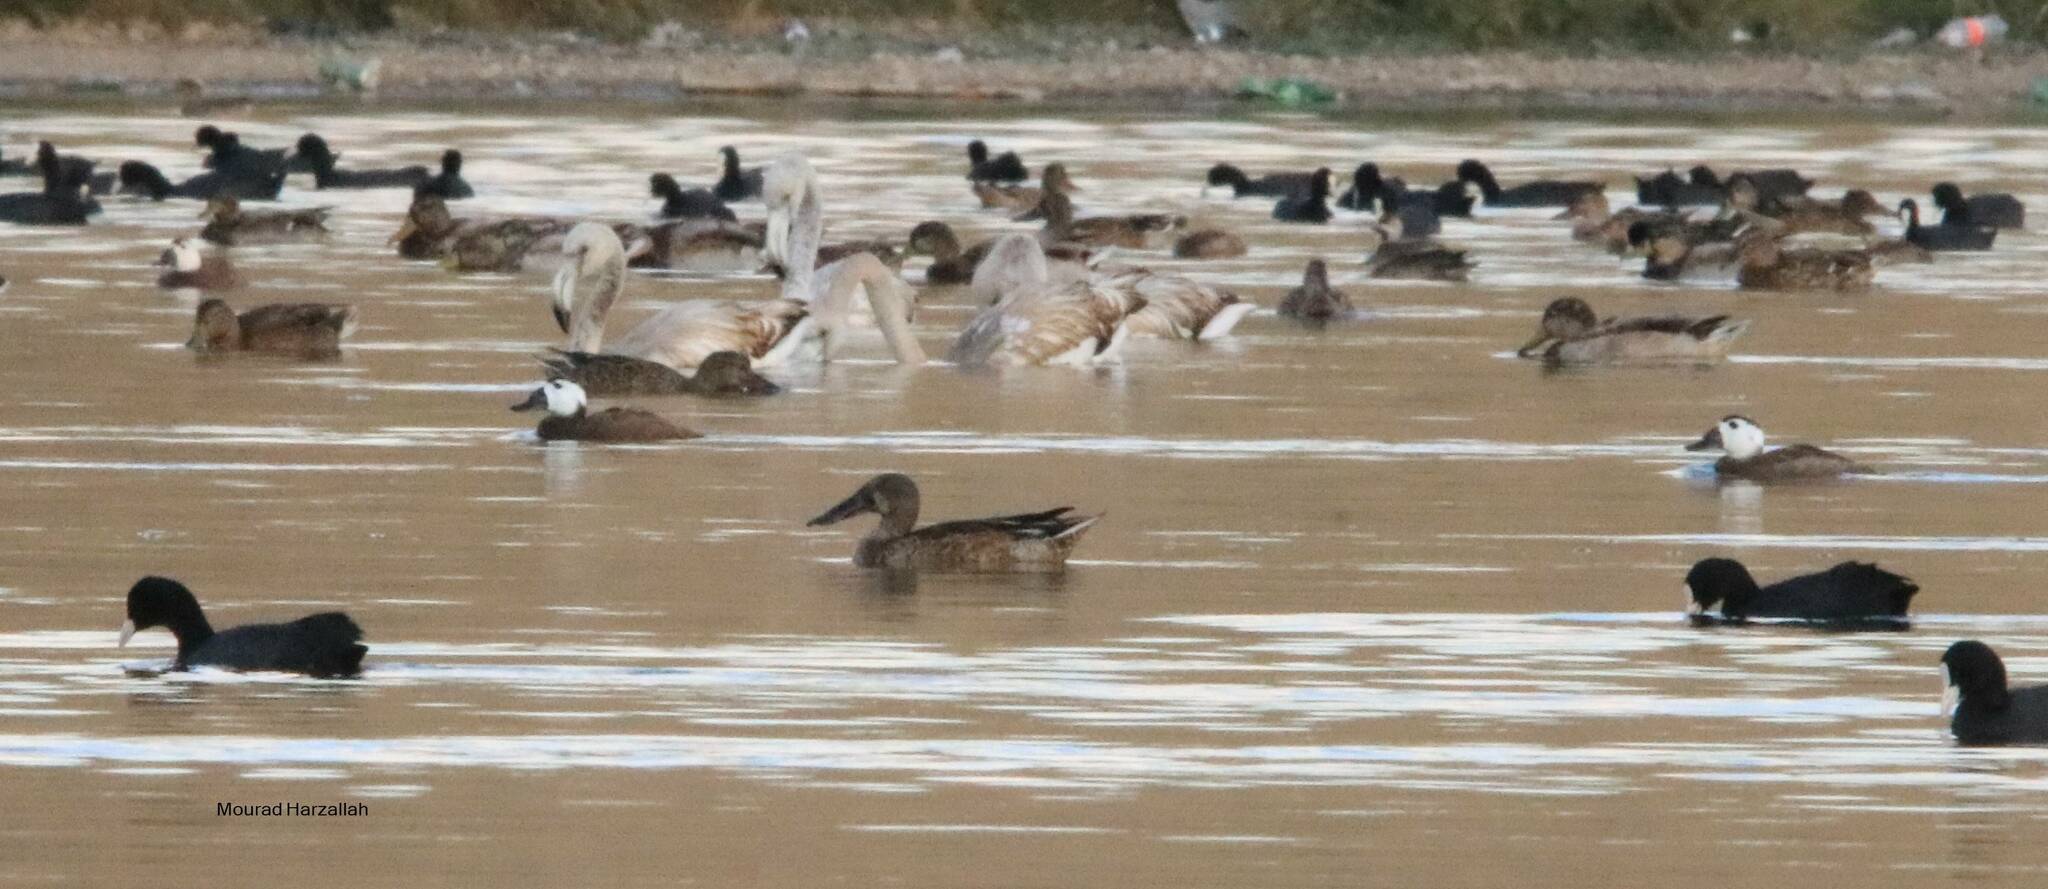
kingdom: Animalia
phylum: Chordata
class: Aves
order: Anseriformes
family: Anatidae
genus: Oxyura
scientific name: Oxyura leucocephala
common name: White-headed duck
